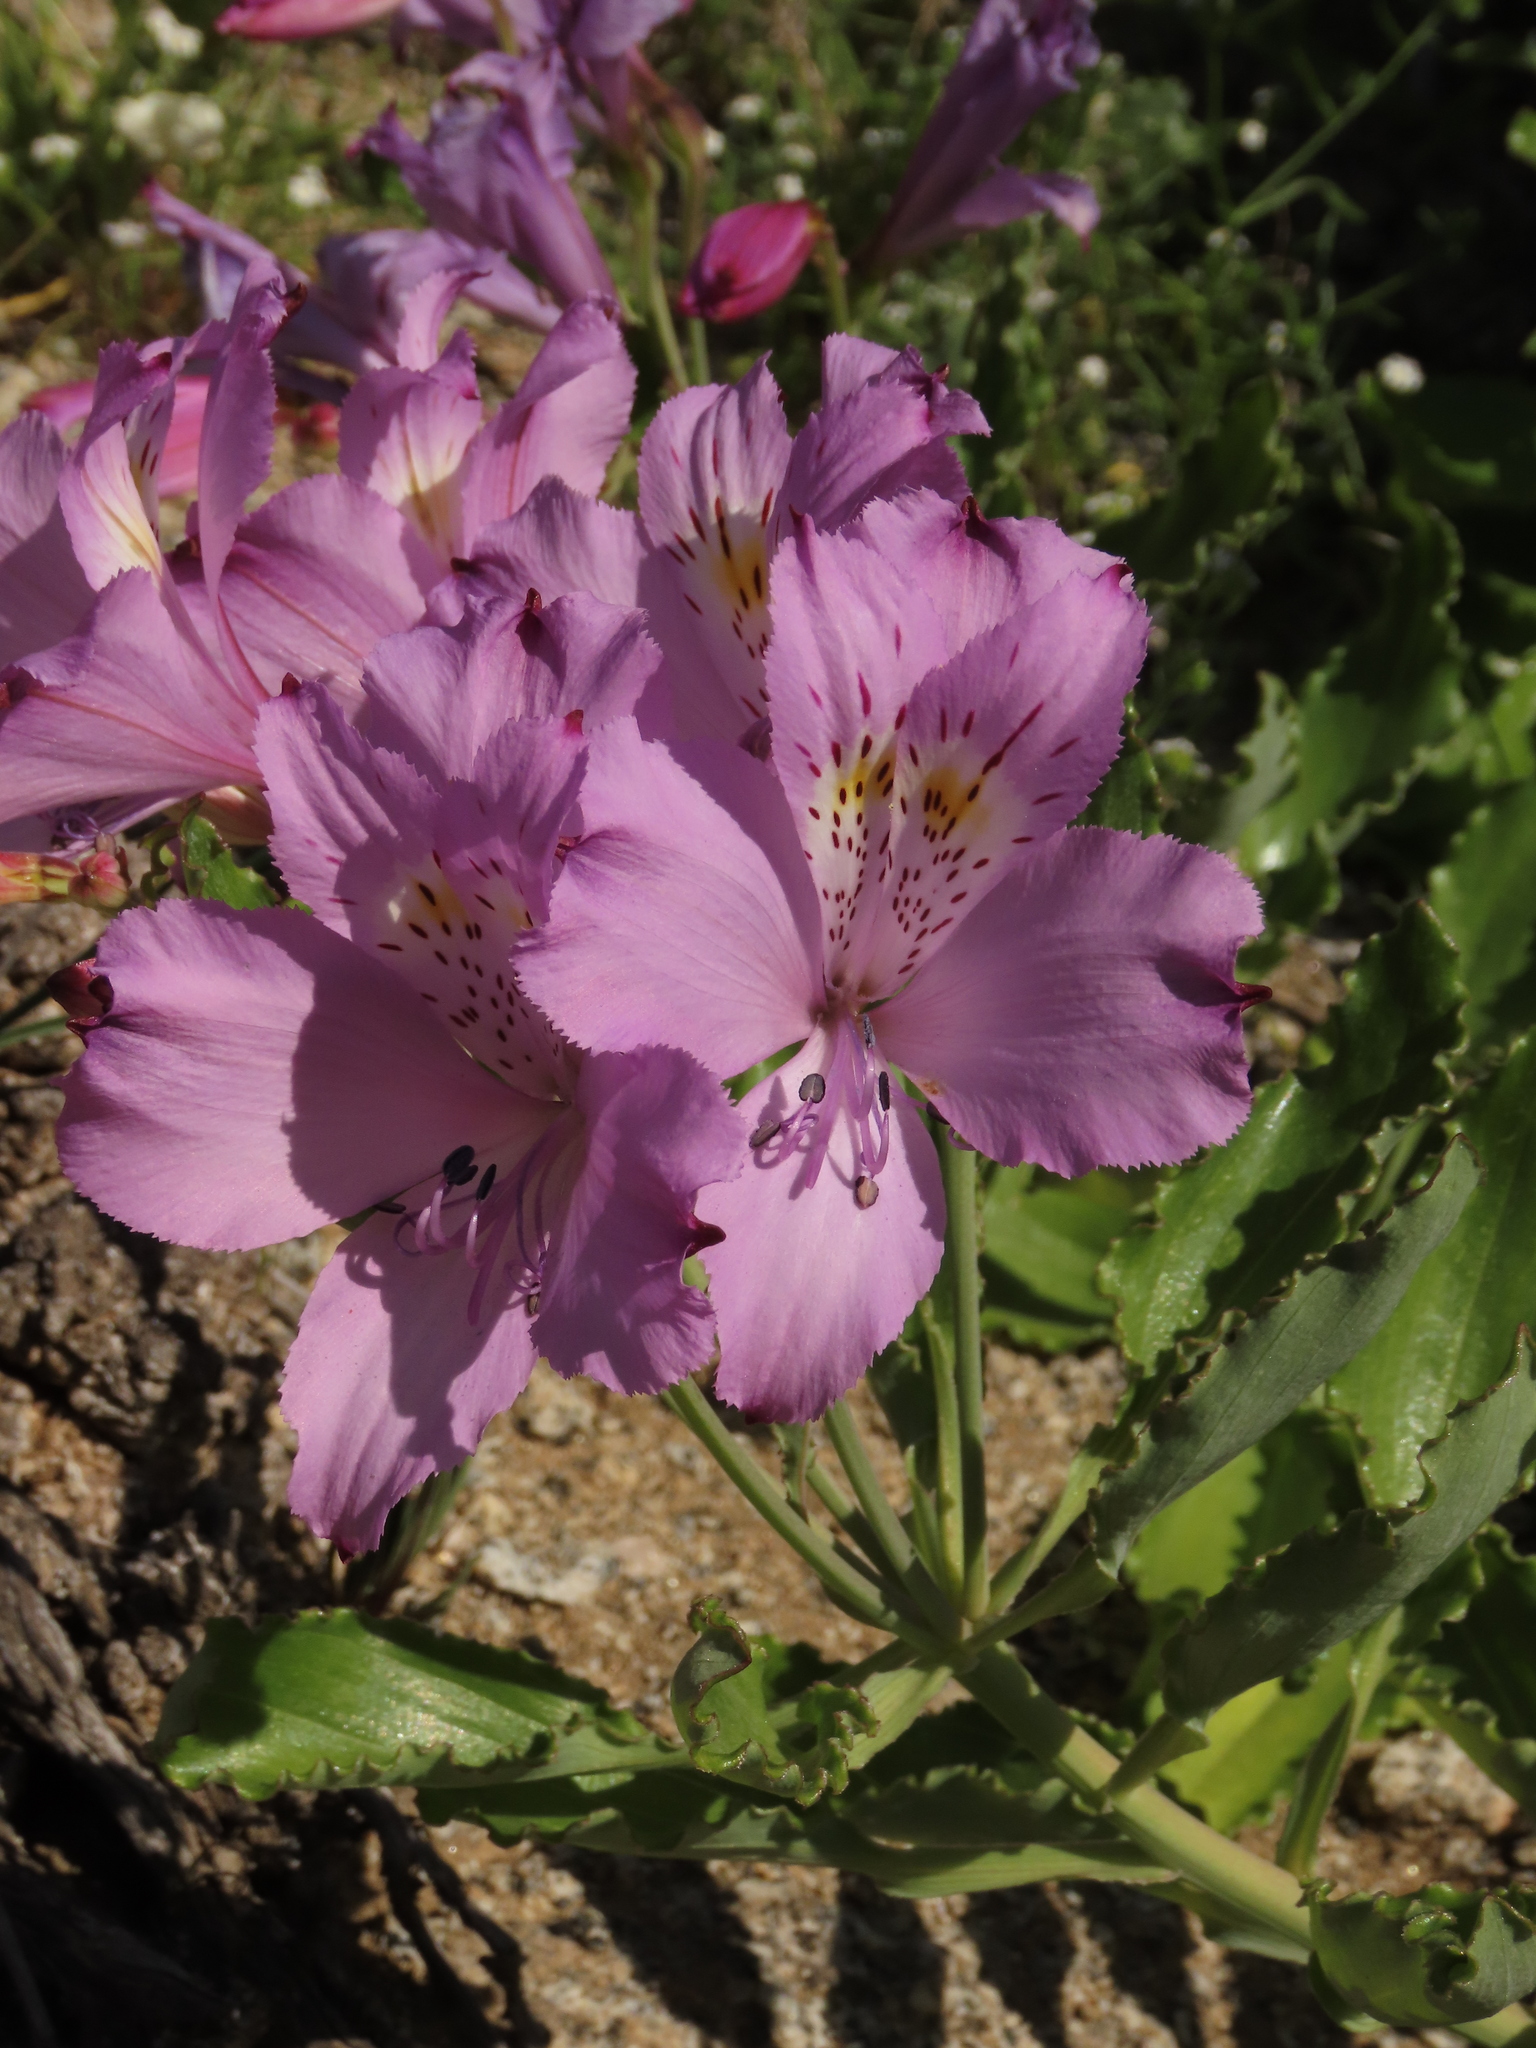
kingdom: Plantae
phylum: Tracheophyta
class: Liliopsida
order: Liliales
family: Alstroemeriaceae
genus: Alstroemeria
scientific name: Alstroemeria violacea
